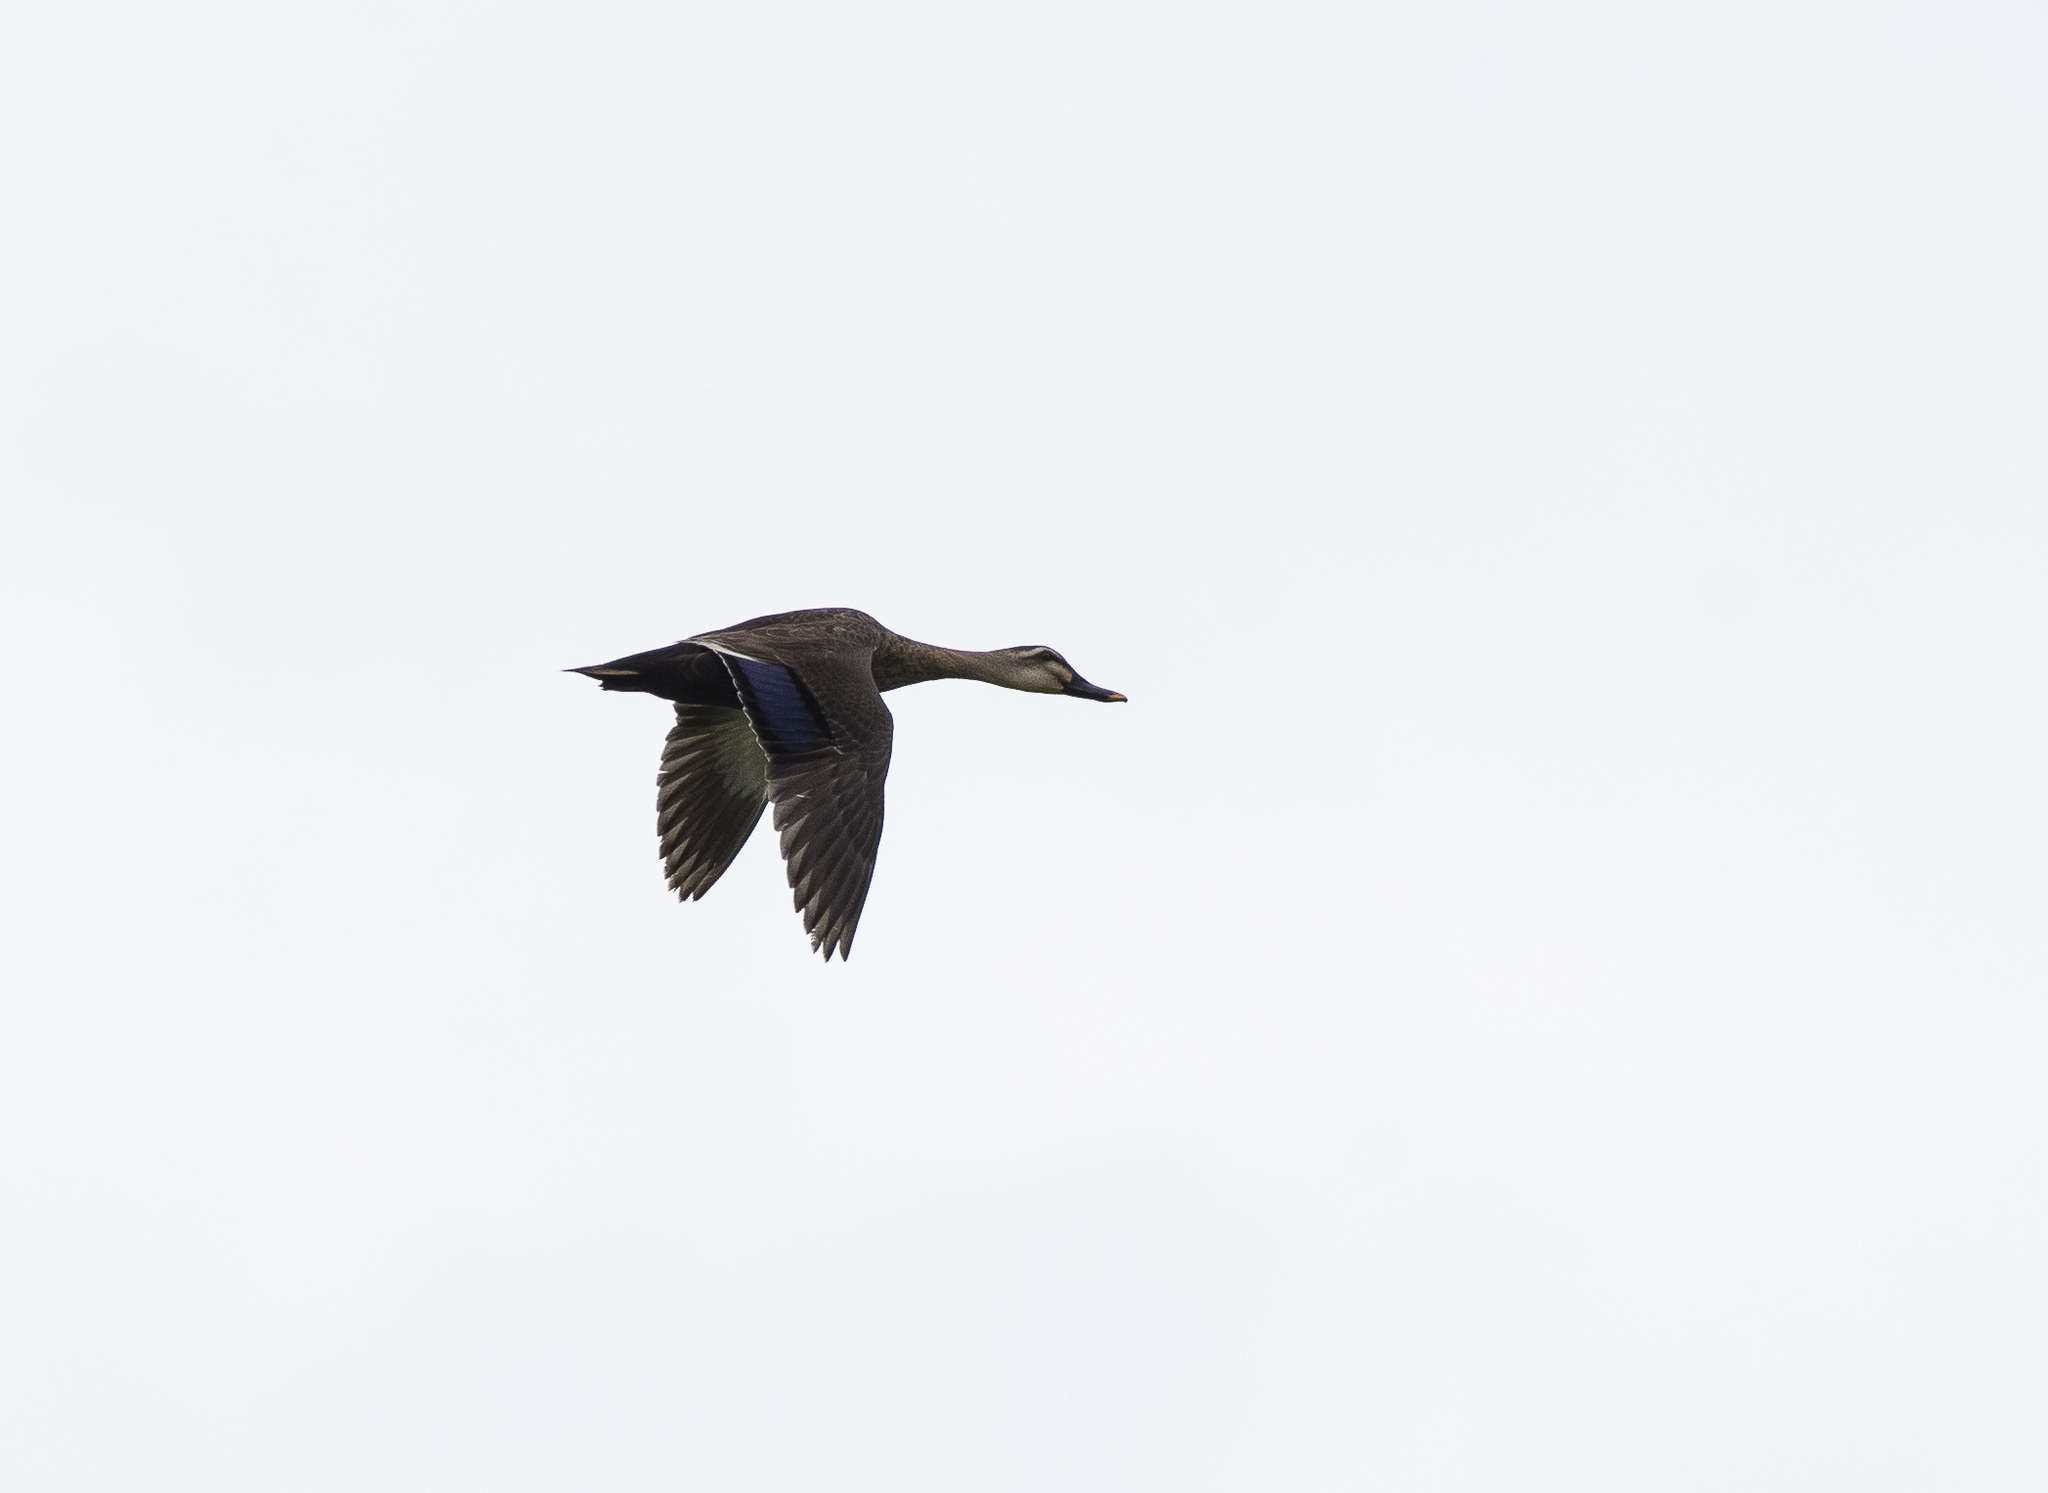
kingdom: Animalia
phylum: Chordata
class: Aves
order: Anseriformes
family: Anatidae
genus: Anas
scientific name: Anas zonorhyncha
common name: Eastern spot-billed duck
